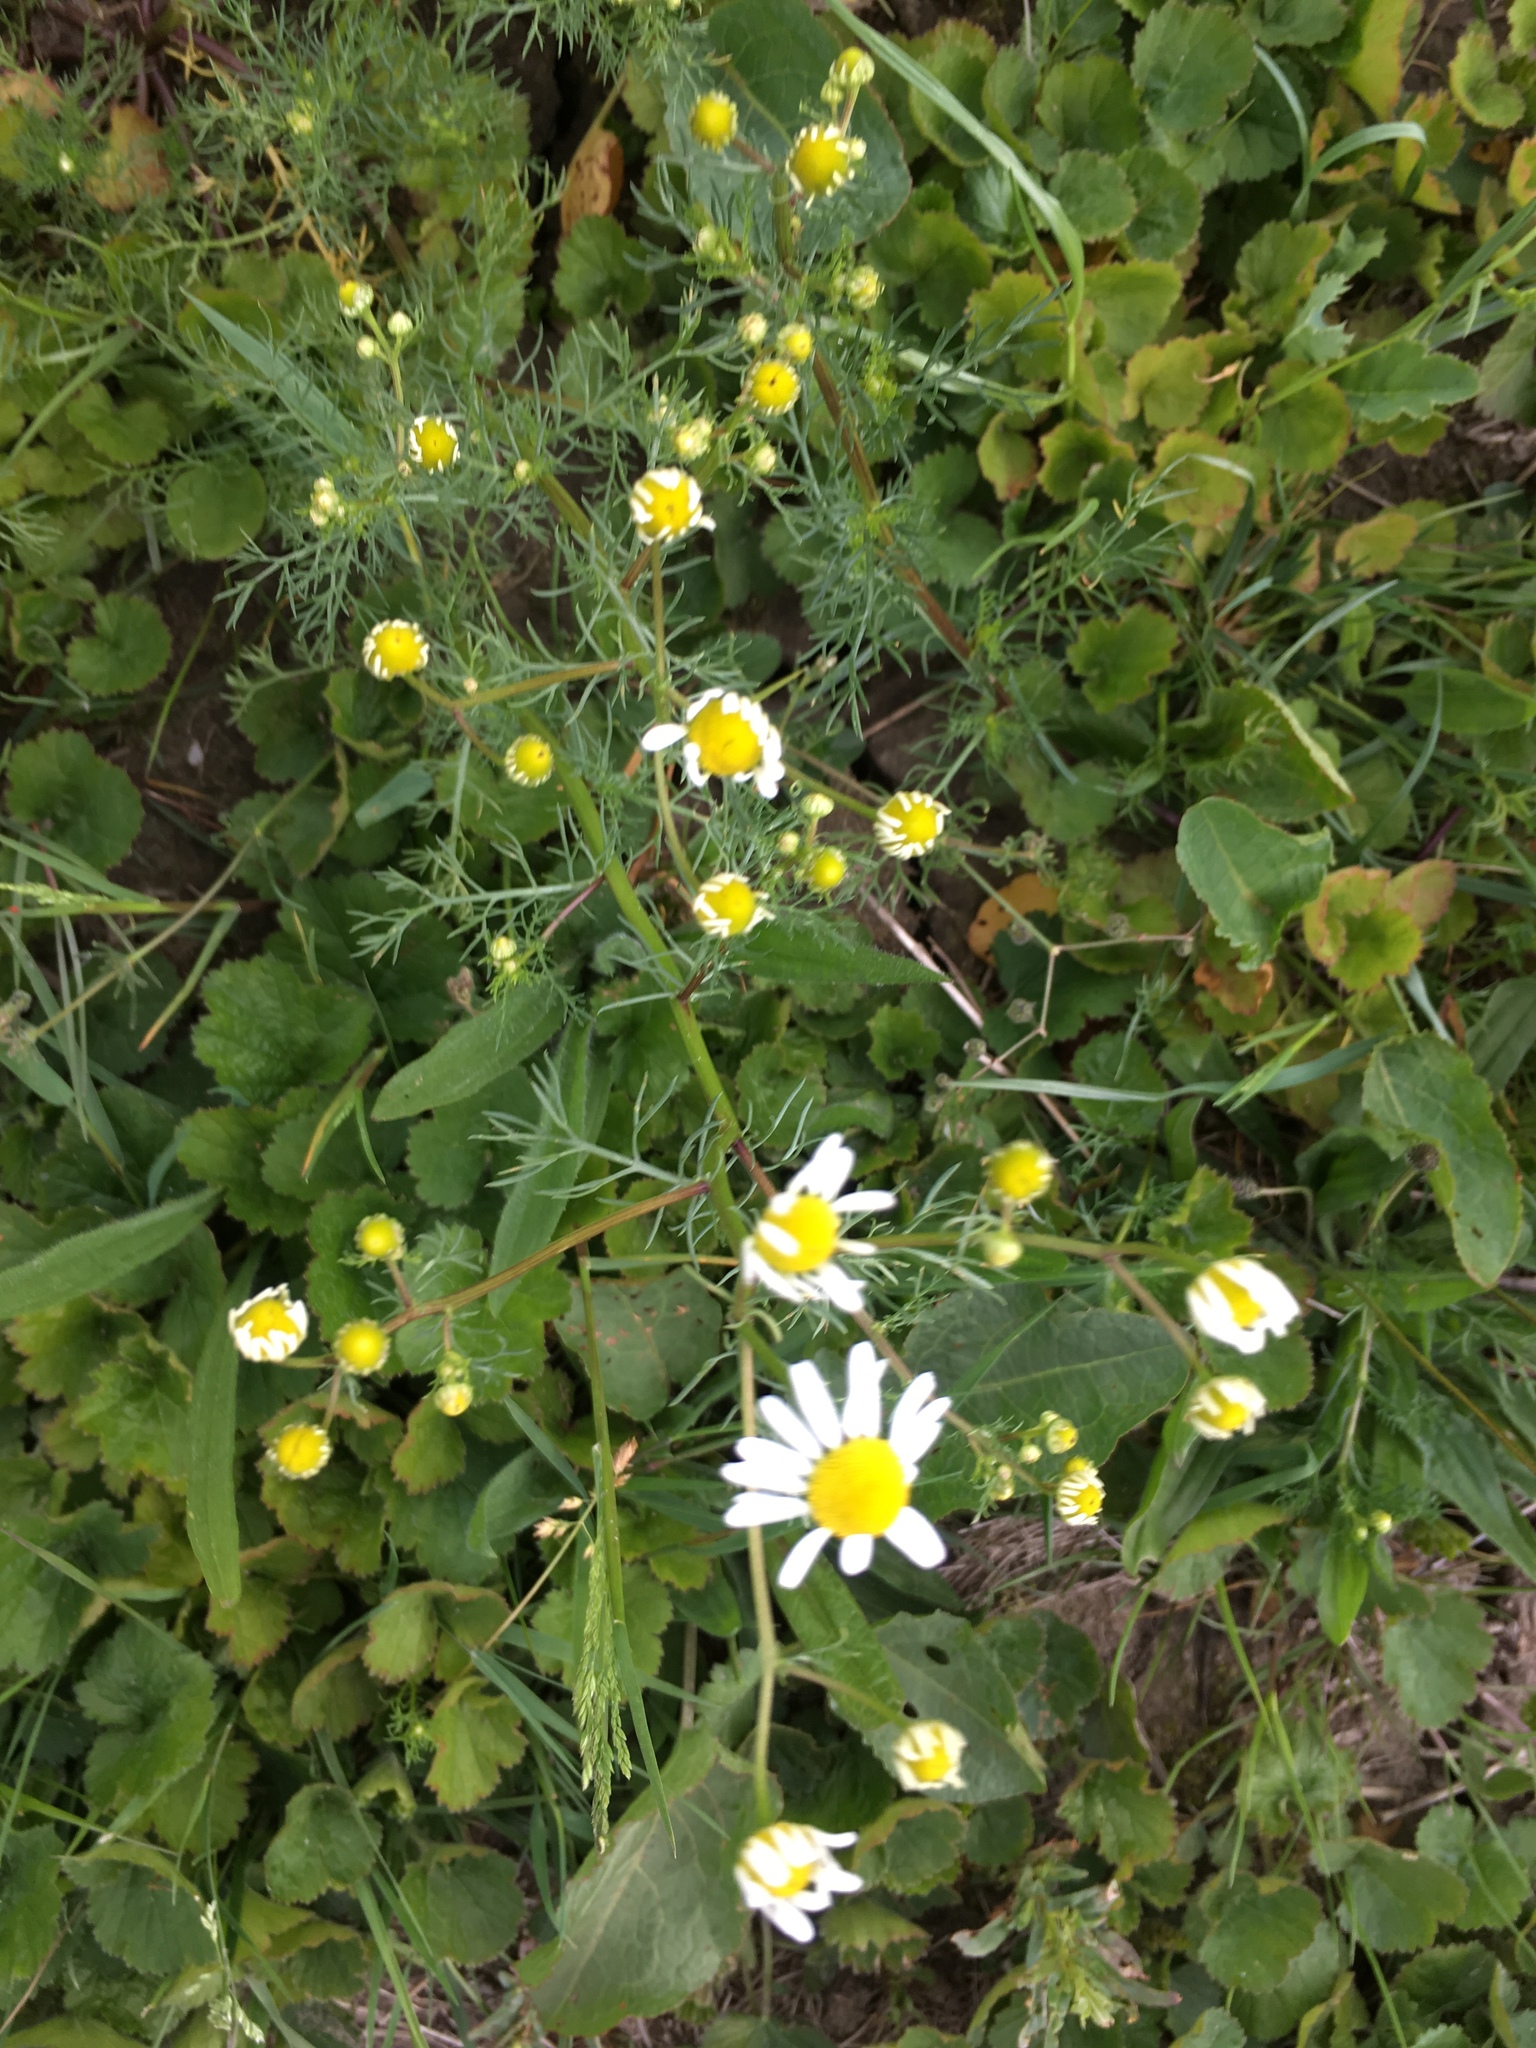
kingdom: Plantae
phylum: Tracheophyta
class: Magnoliopsida
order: Asterales
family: Asteraceae
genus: Matricaria
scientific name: Matricaria chamomilla
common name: Scented mayweed
